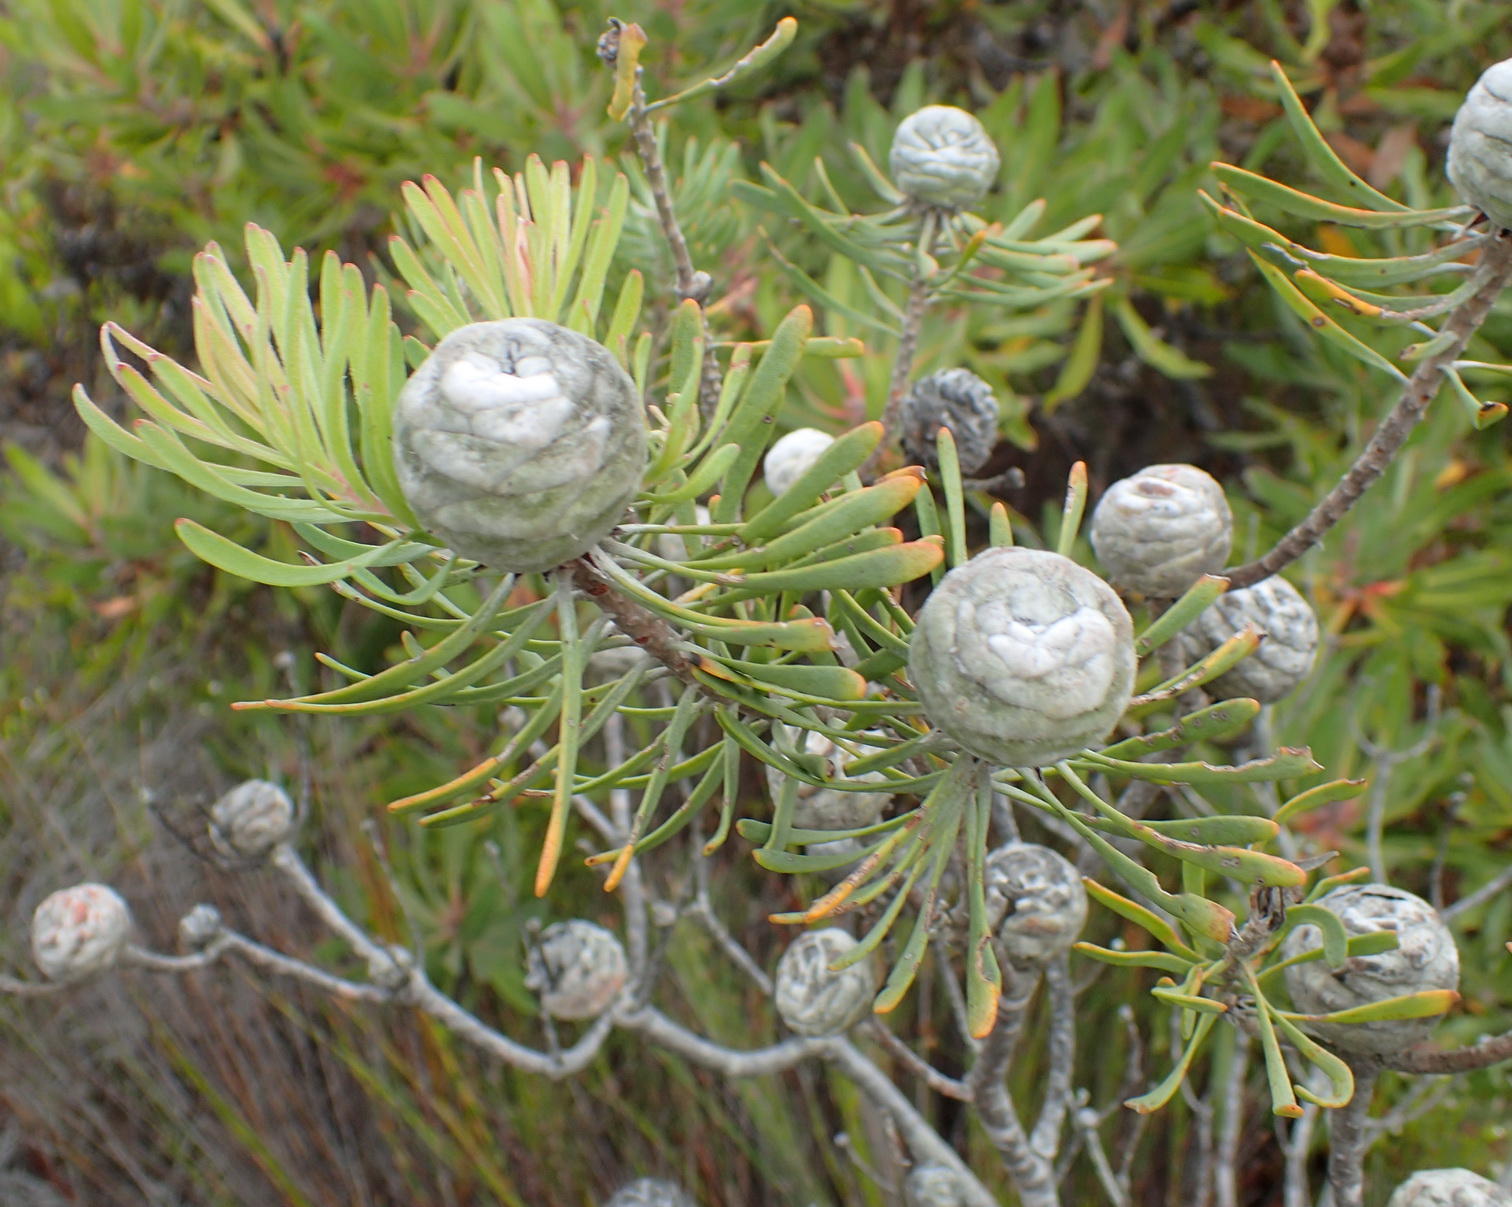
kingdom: Plantae
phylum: Tracheophyta
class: Magnoliopsida
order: Proteales
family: Proteaceae
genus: Leucadendron
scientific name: Leucadendron galpinii
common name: Hairless conebush
